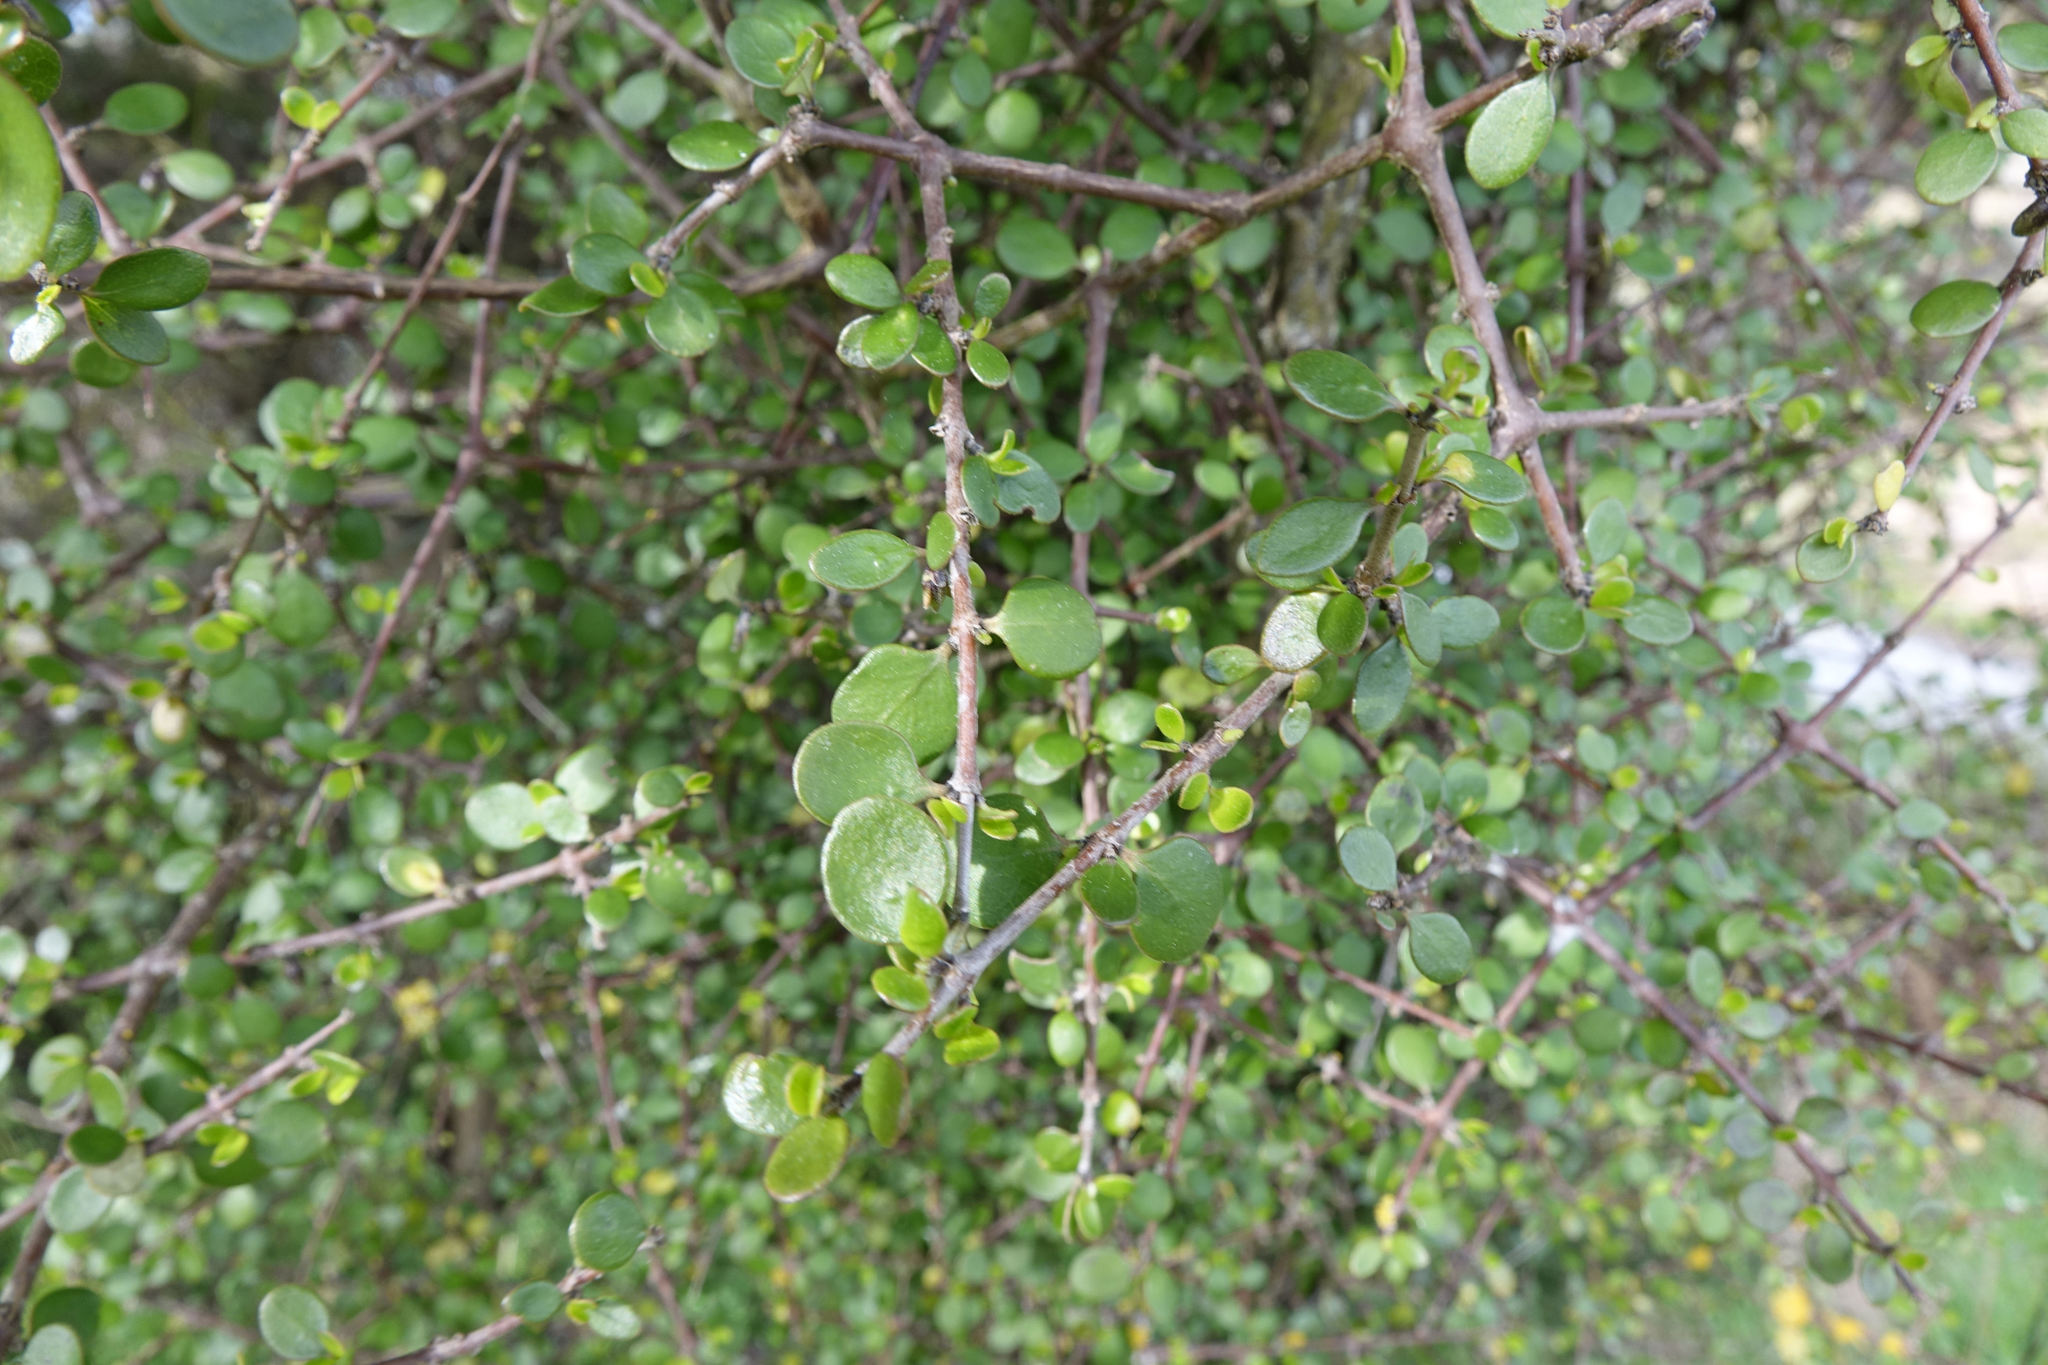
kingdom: Plantae
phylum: Tracheophyta
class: Magnoliopsida
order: Gentianales
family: Rubiaceae
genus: Coprosma
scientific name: Coprosma crassifolia
